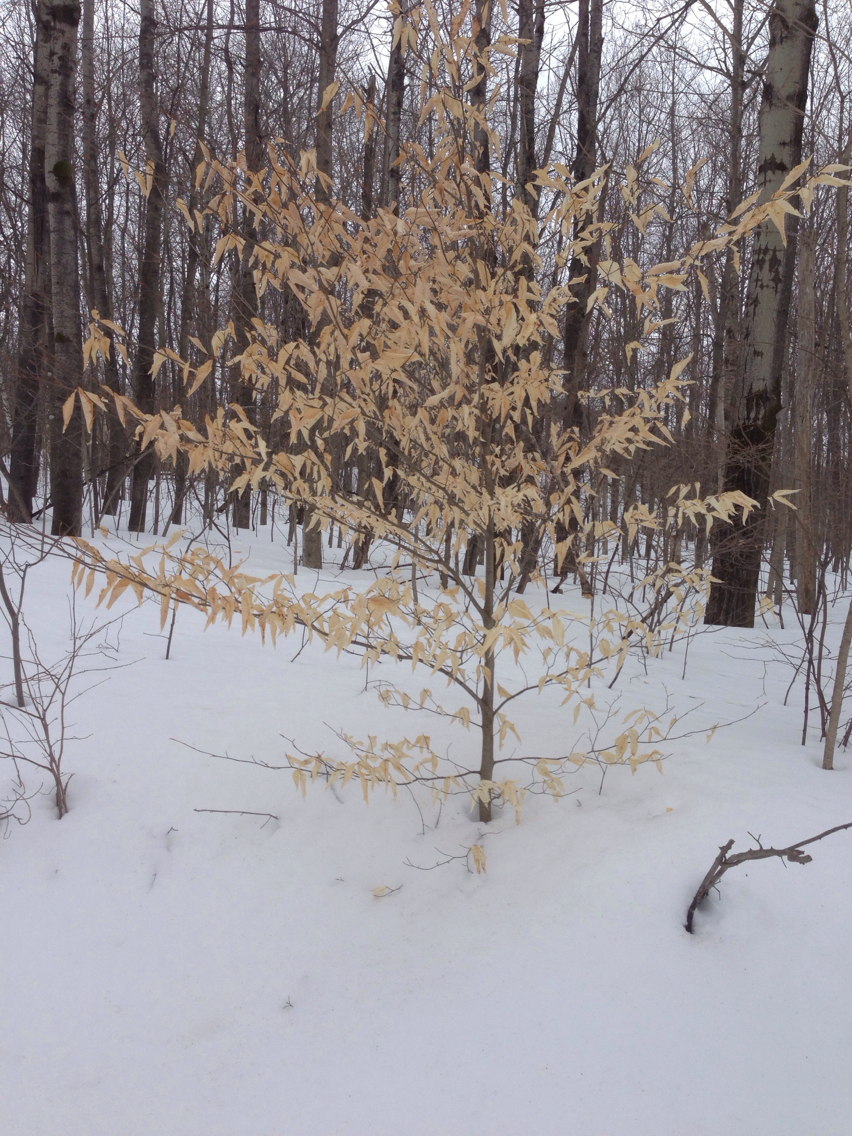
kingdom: Plantae
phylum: Tracheophyta
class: Magnoliopsida
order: Fagales
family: Fagaceae
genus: Fagus
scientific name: Fagus grandifolia
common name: American beech
